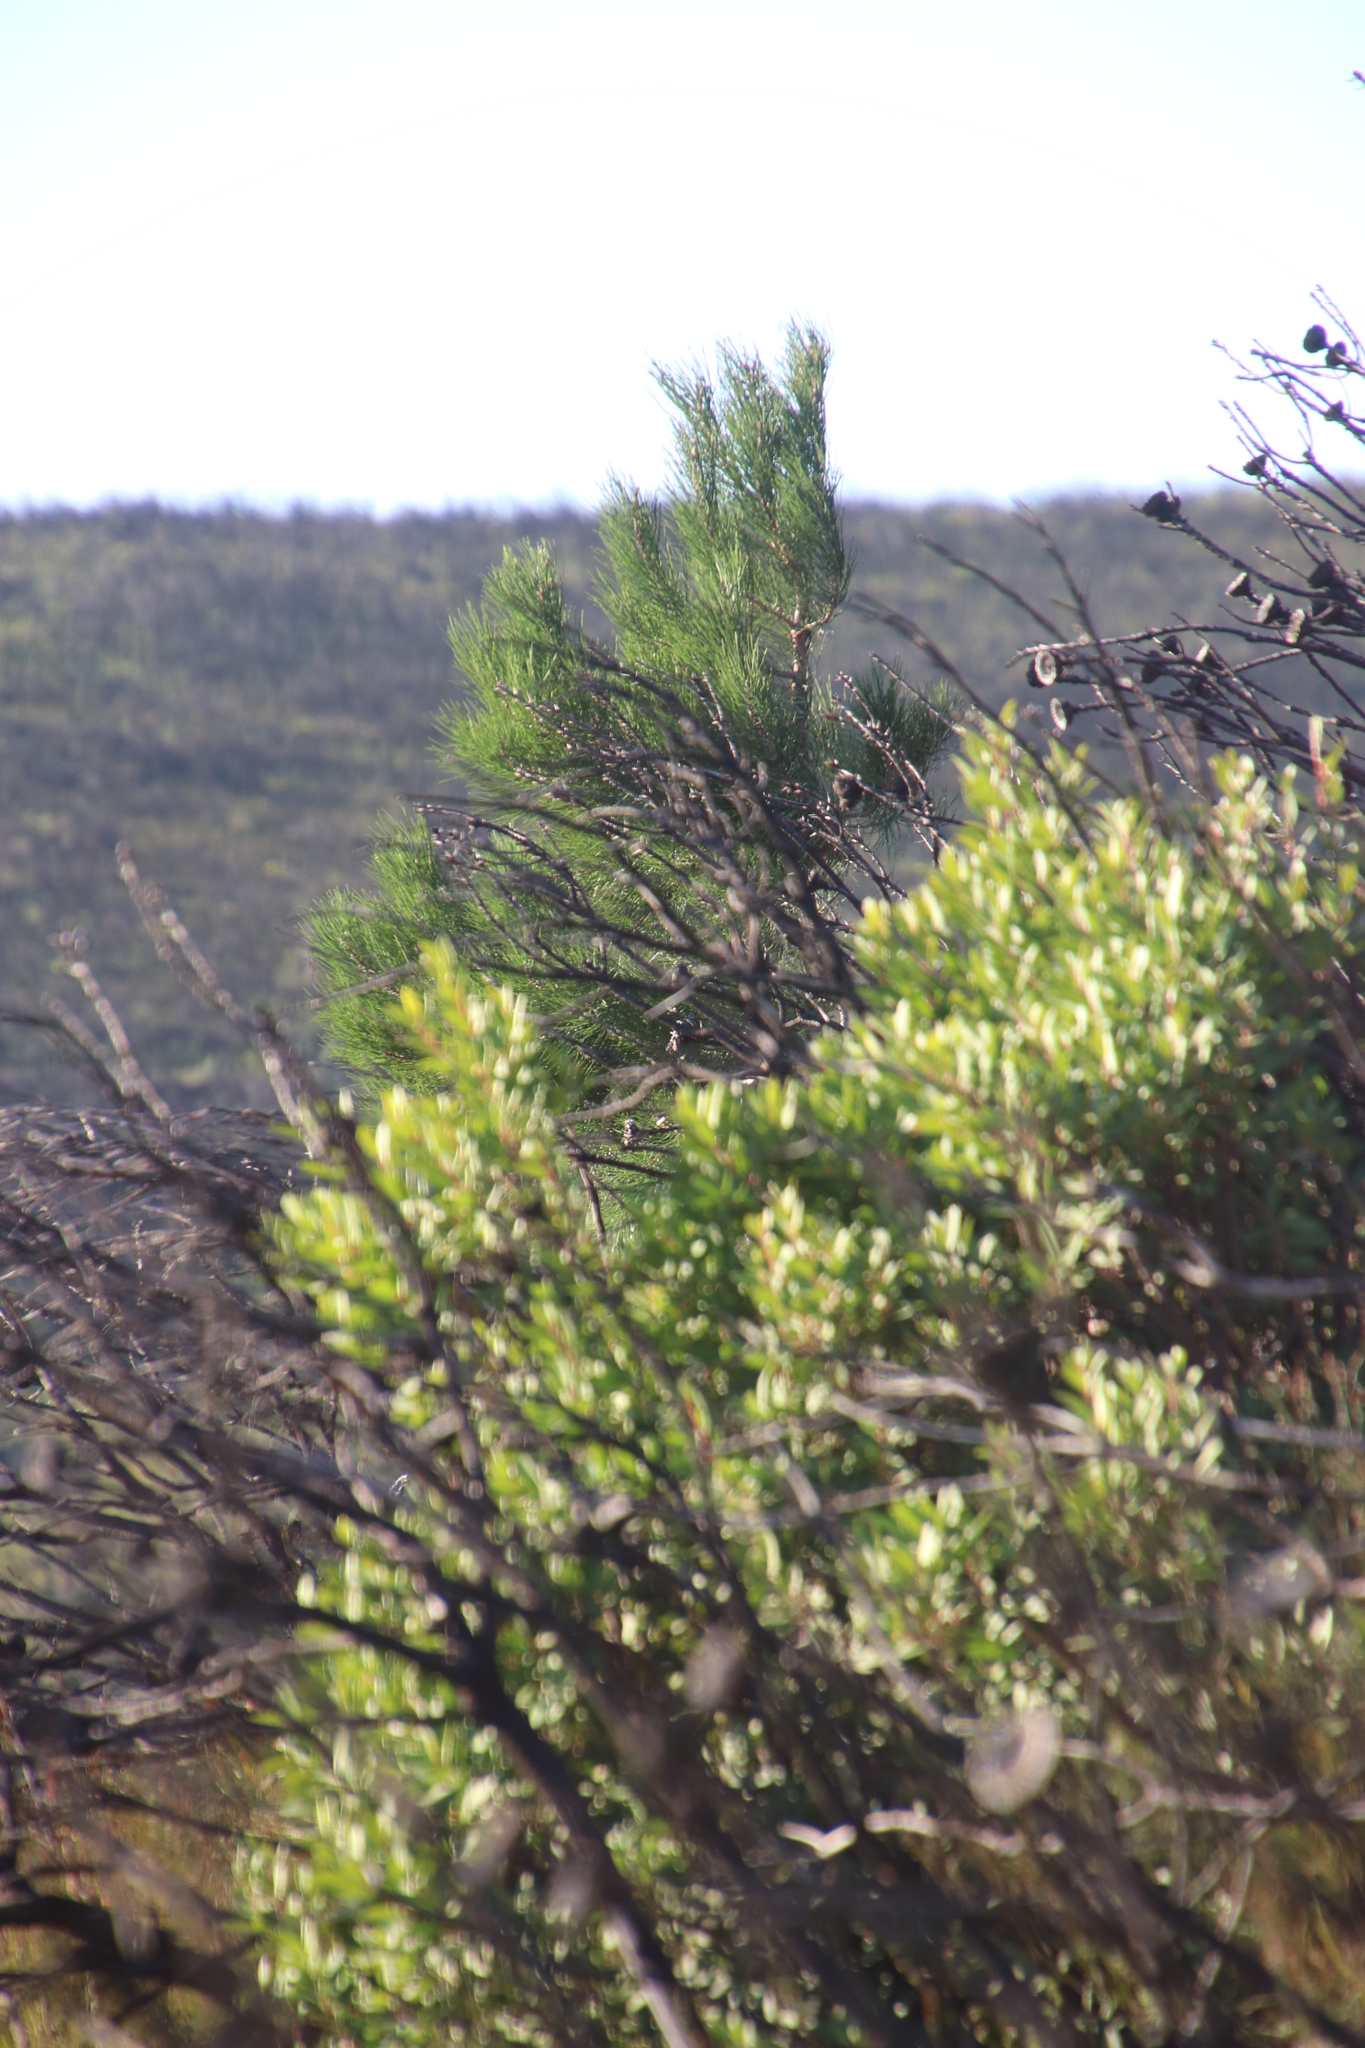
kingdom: Plantae
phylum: Tracheophyta
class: Pinopsida
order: Pinales
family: Pinaceae
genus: Pinus
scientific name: Pinus pinaster
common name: Maritime pine
